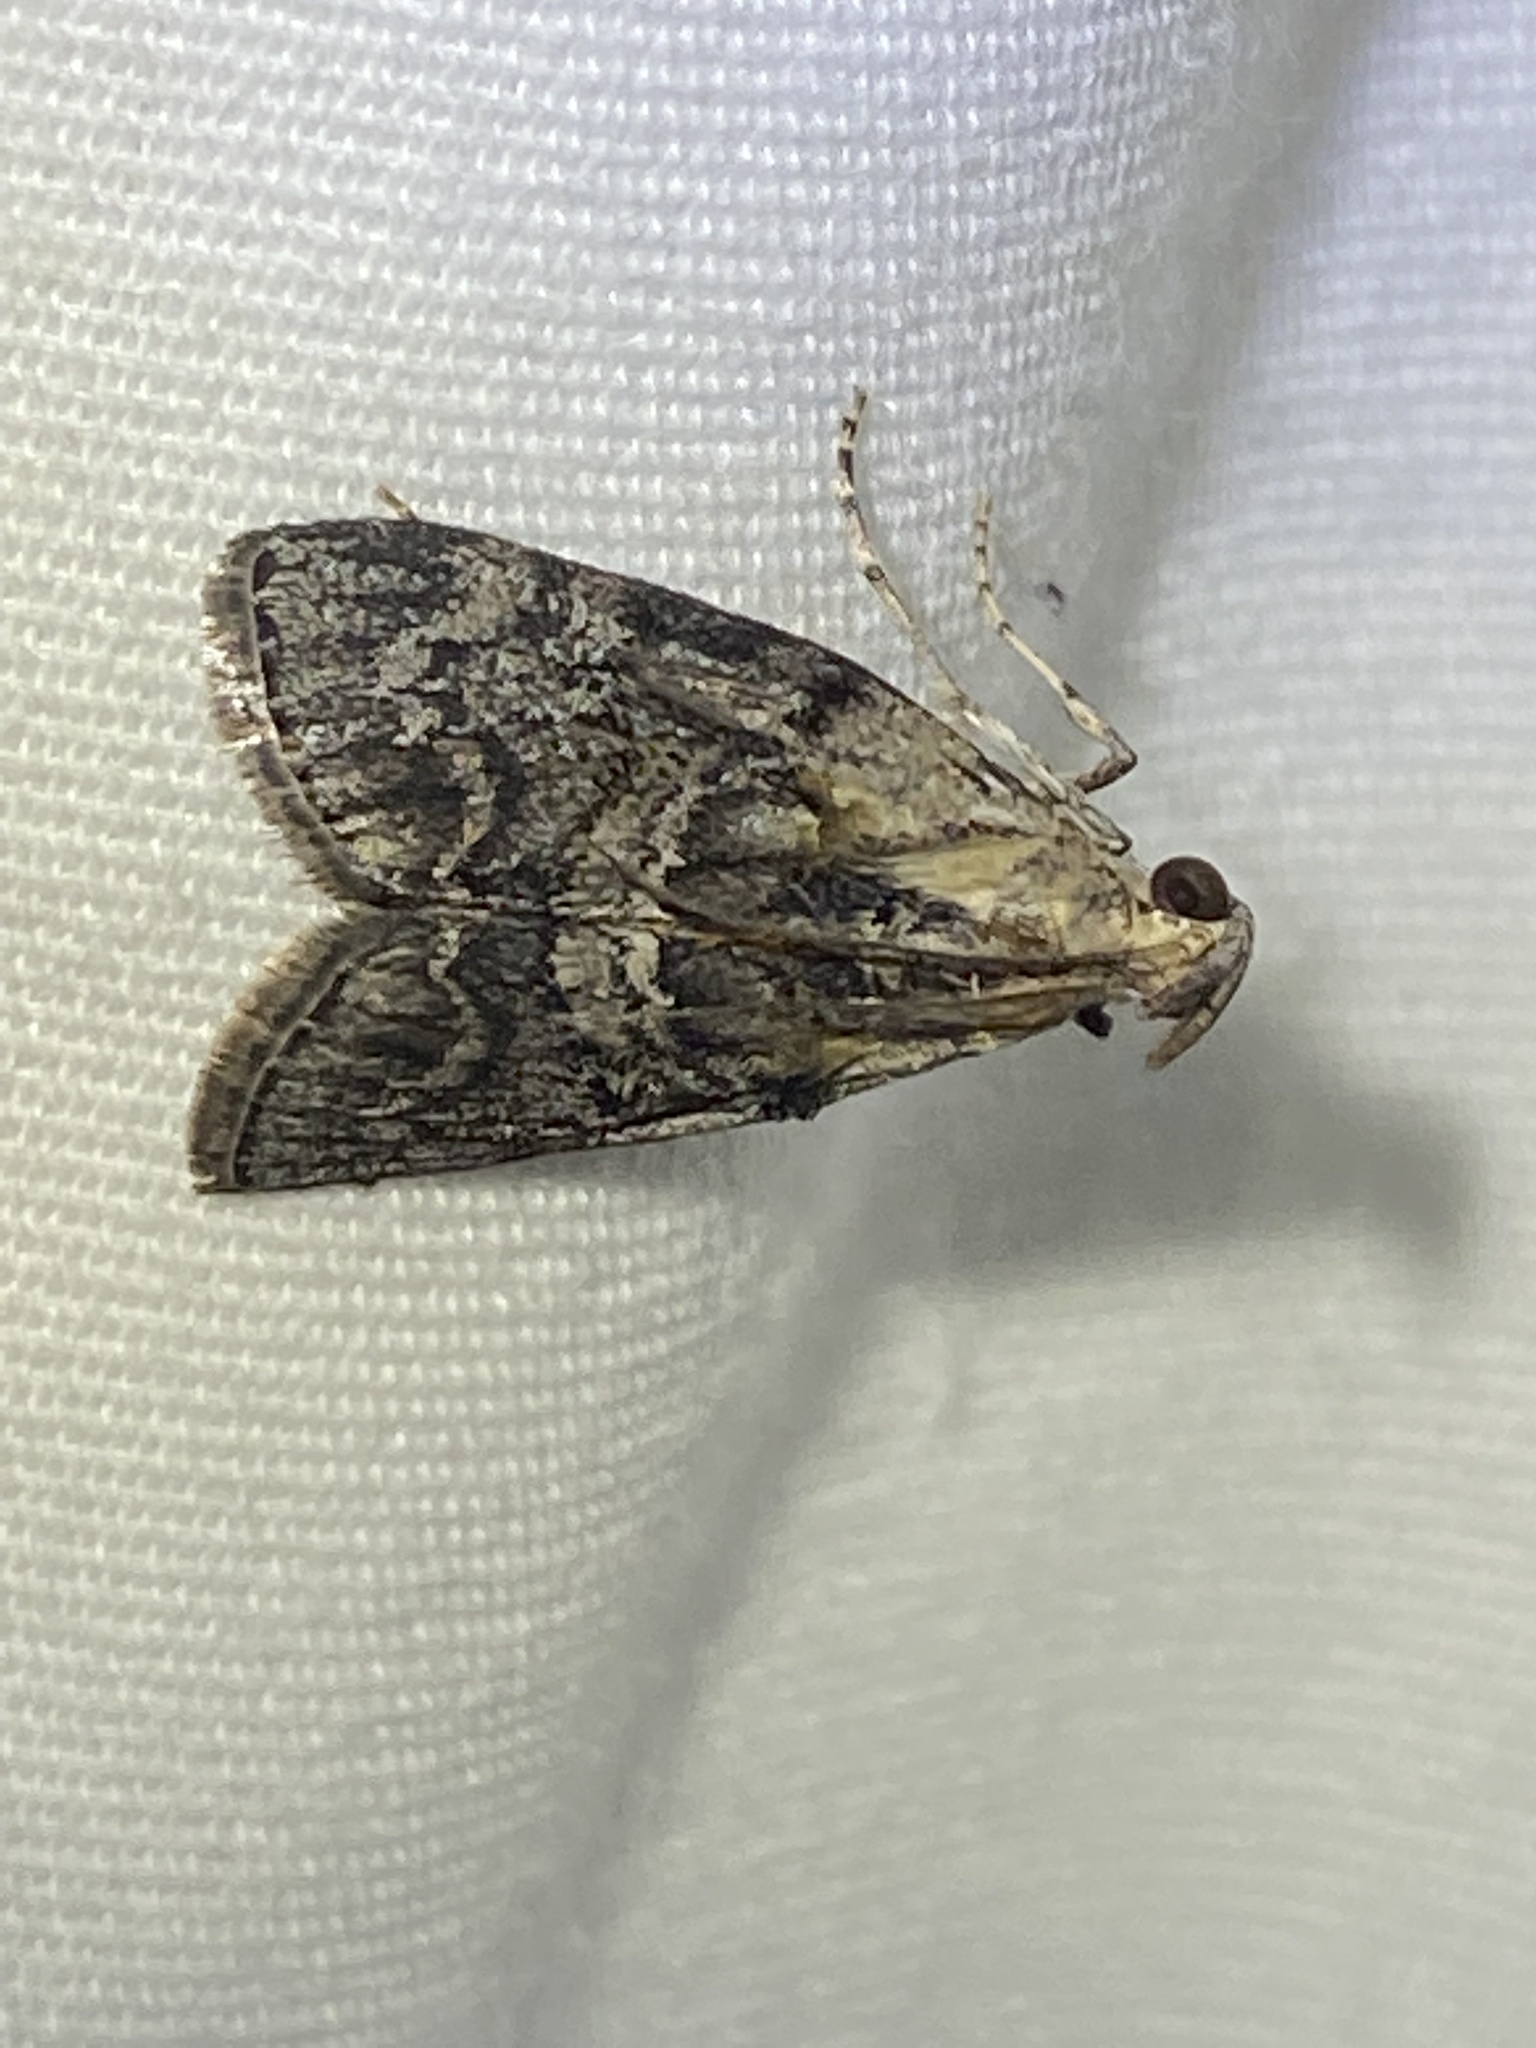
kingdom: Animalia
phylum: Arthropoda
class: Insecta
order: Lepidoptera
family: Pyralidae
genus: Pococera
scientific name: Pococera expandens
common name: Striped oak webworm moth
